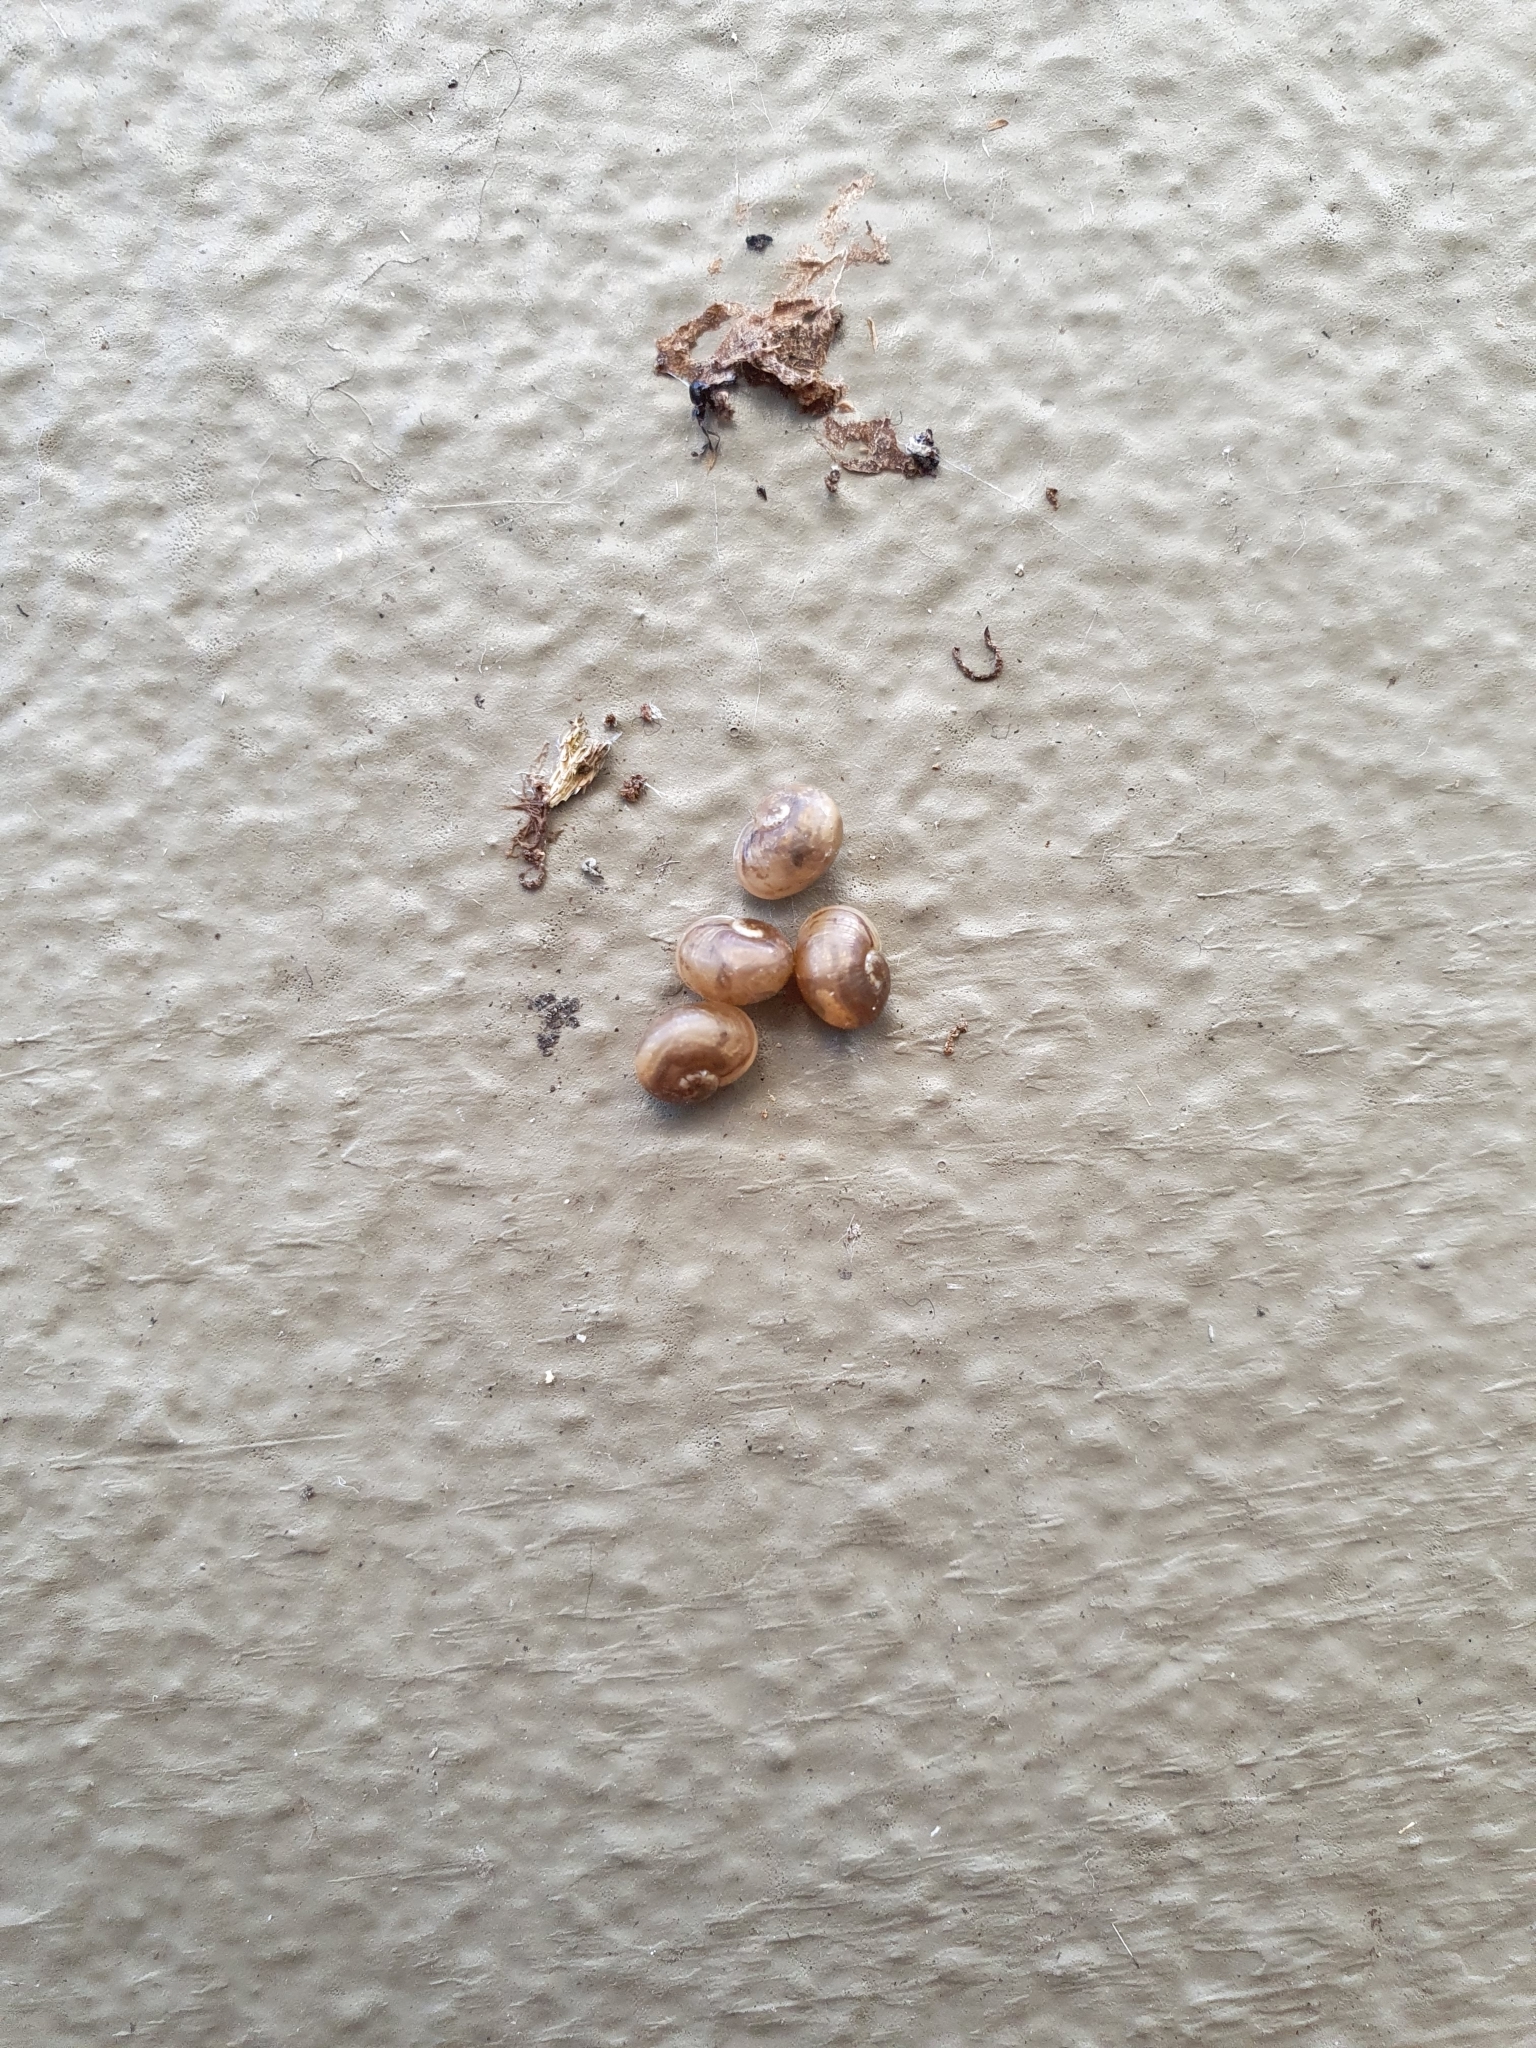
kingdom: Animalia
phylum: Mollusca
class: Gastropoda
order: Stylommatophora
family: Helicidae
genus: Cornu
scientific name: Cornu aspersum
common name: Brown garden snail
